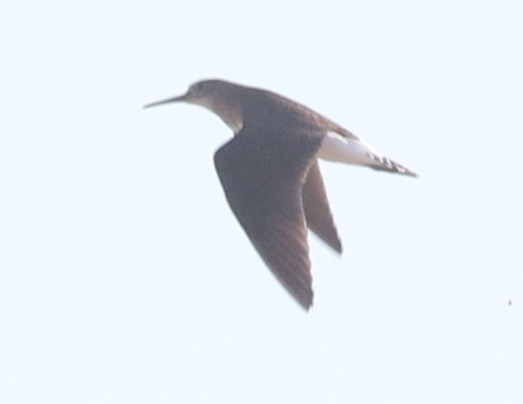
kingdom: Animalia
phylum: Chordata
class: Aves
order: Charadriiformes
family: Scolopacidae
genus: Tringa
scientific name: Tringa ochropus
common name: Green sandpiper
